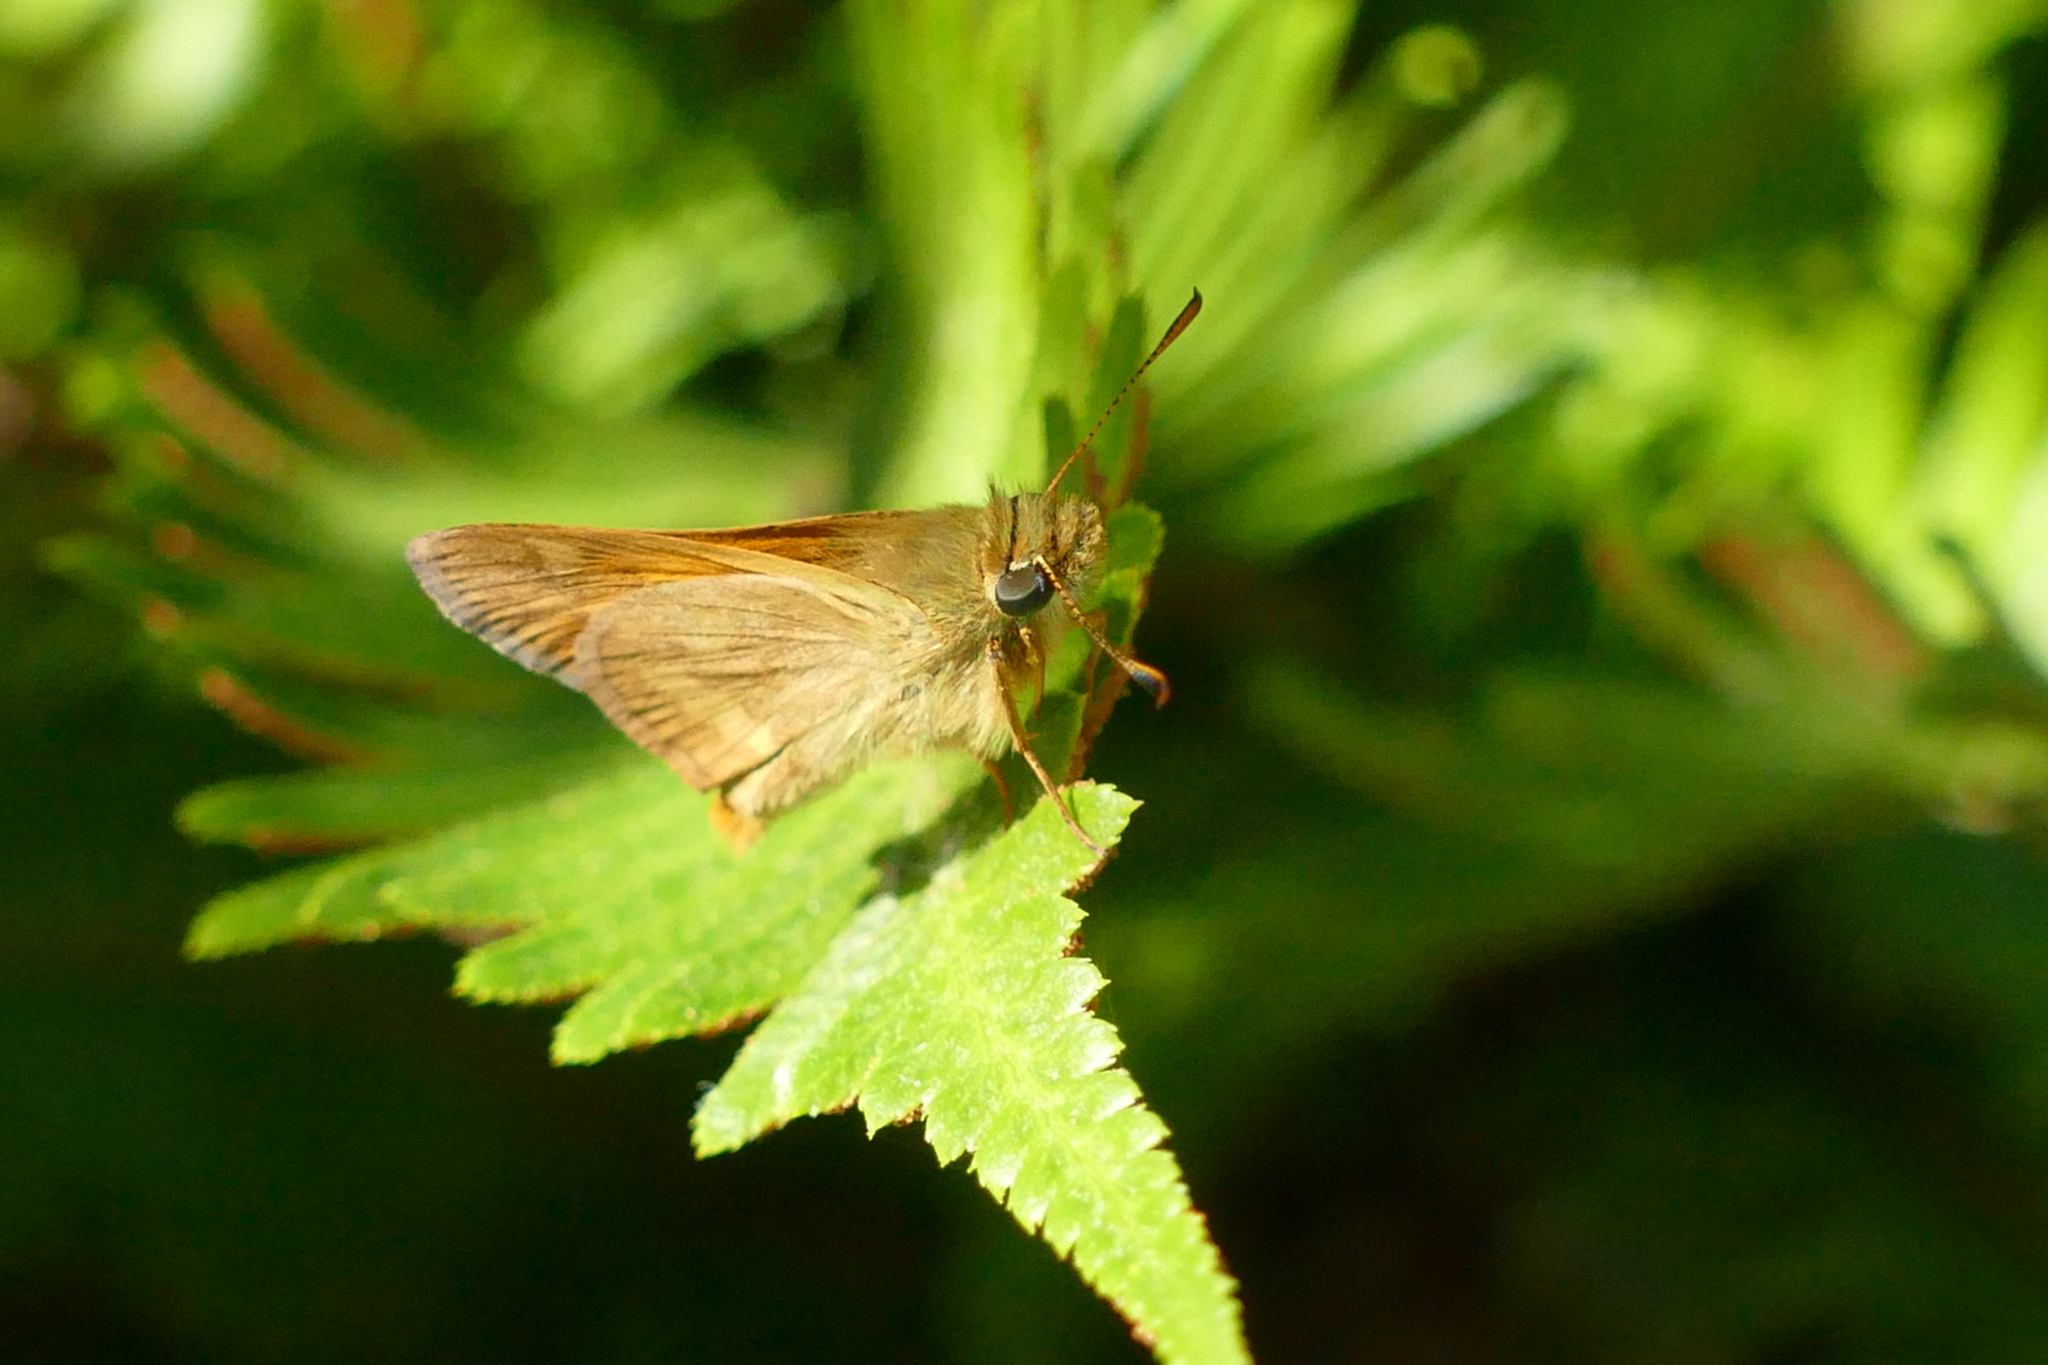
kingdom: Animalia
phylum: Arthropoda
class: Insecta
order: Lepidoptera
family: Hesperiidae
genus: Ochlodes
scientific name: Ochlodes sylvanoides
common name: Woodland skipper
